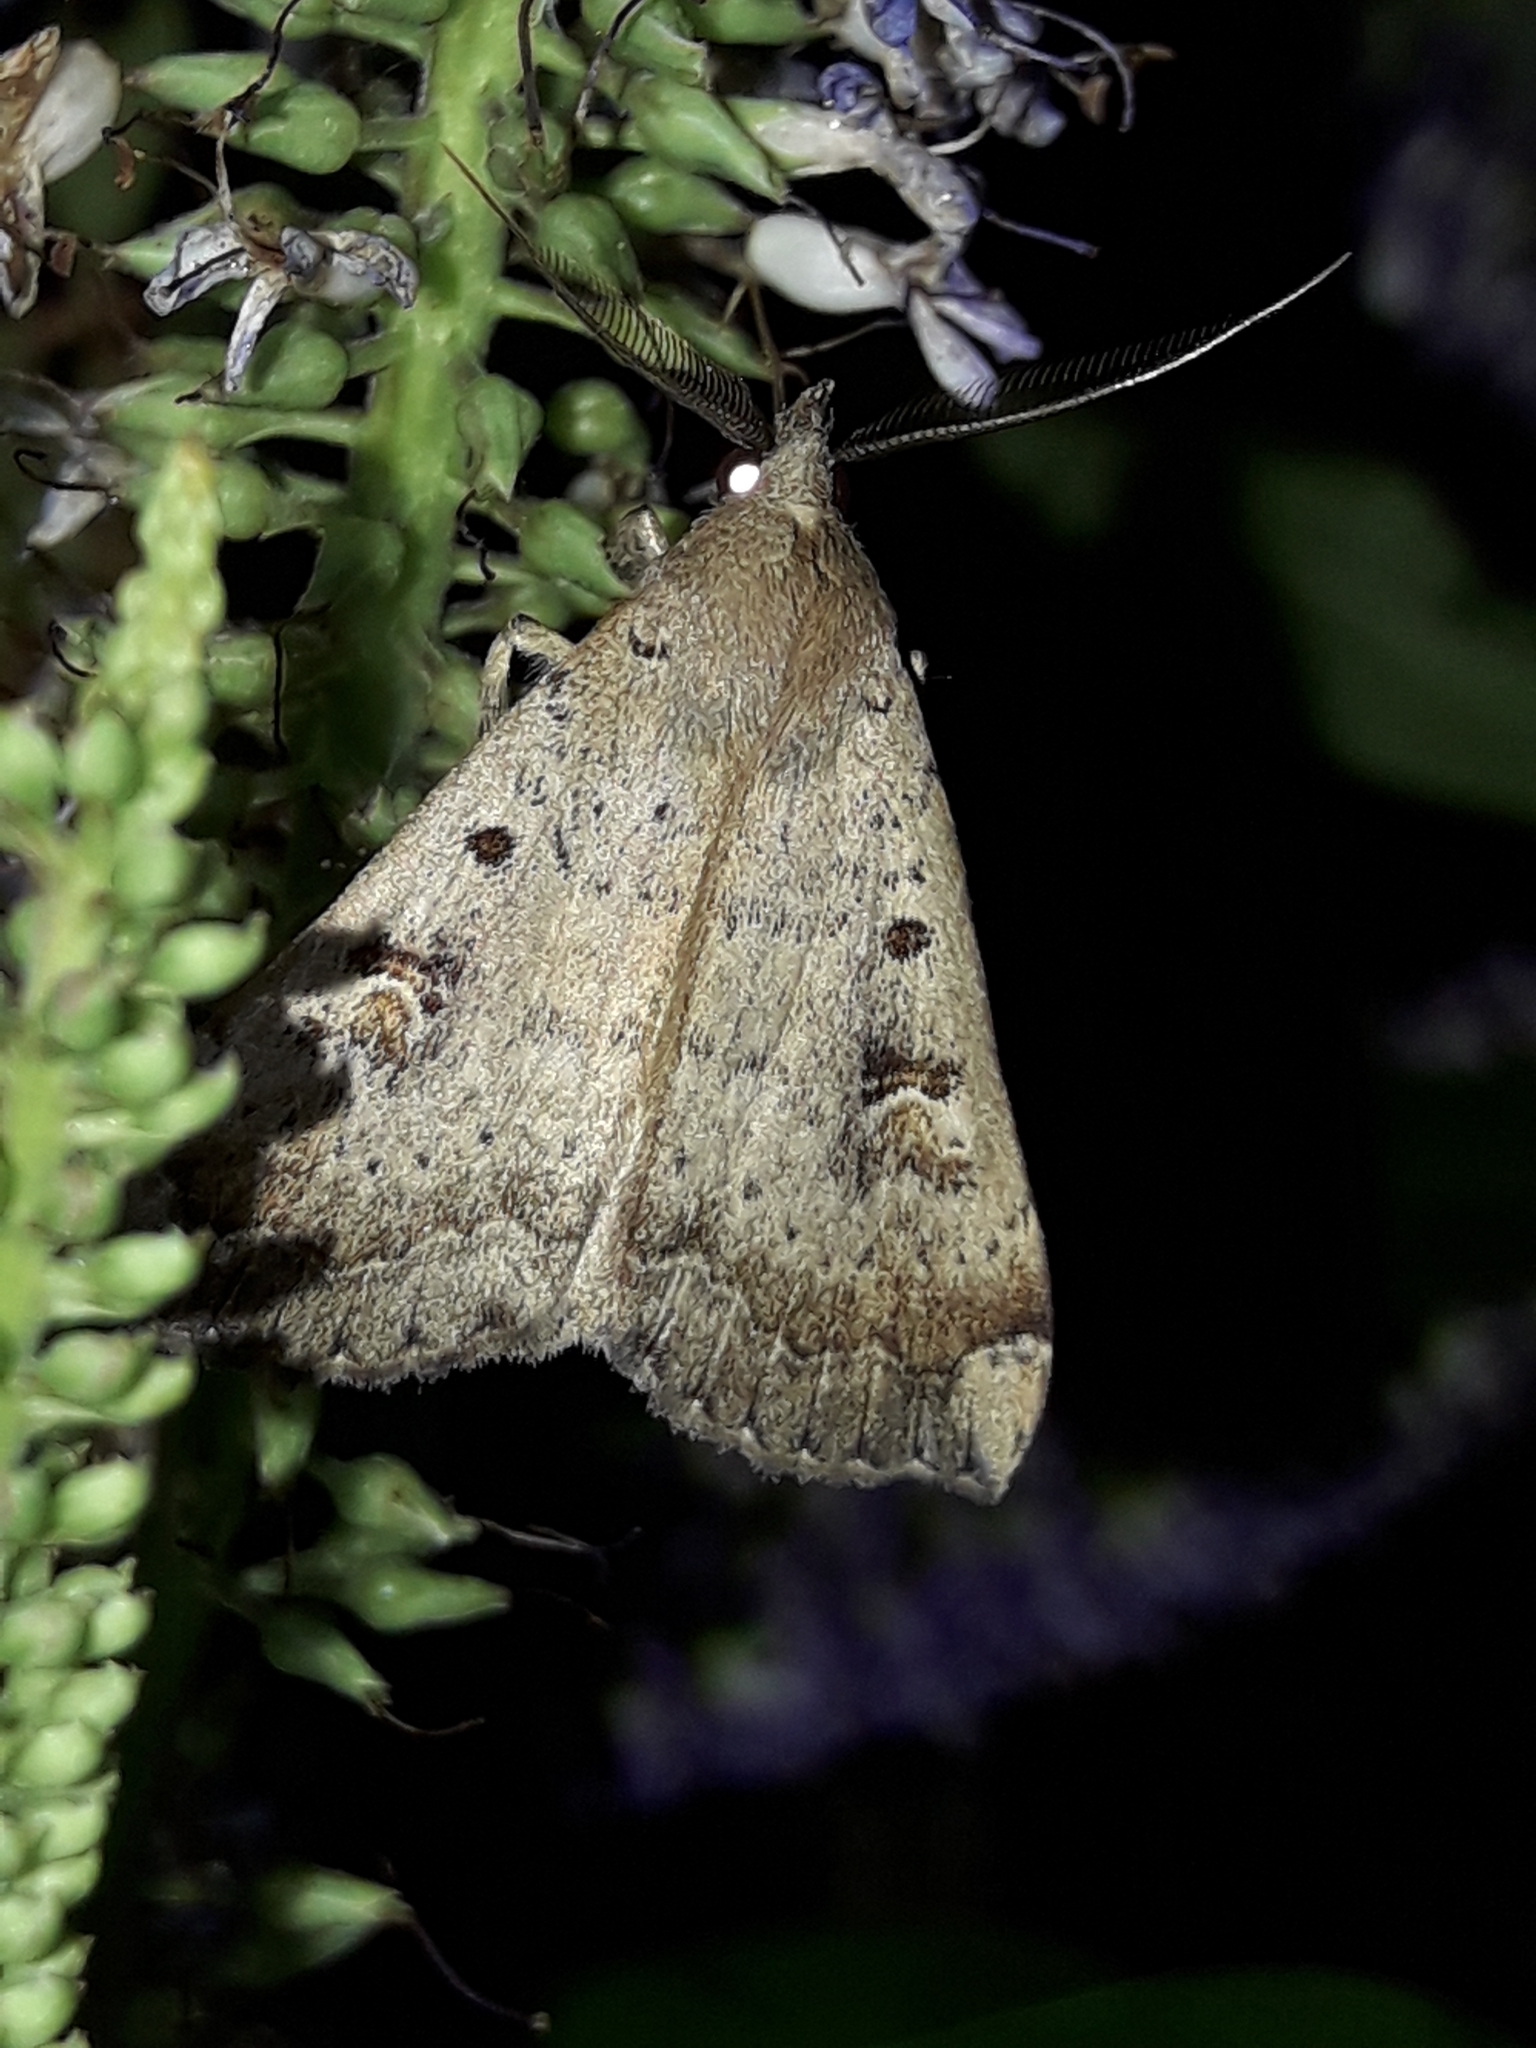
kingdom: Animalia
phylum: Arthropoda
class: Insecta
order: Lepidoptera
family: Erebidae
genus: Rhapsa
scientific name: Rhapsa scotosialis
